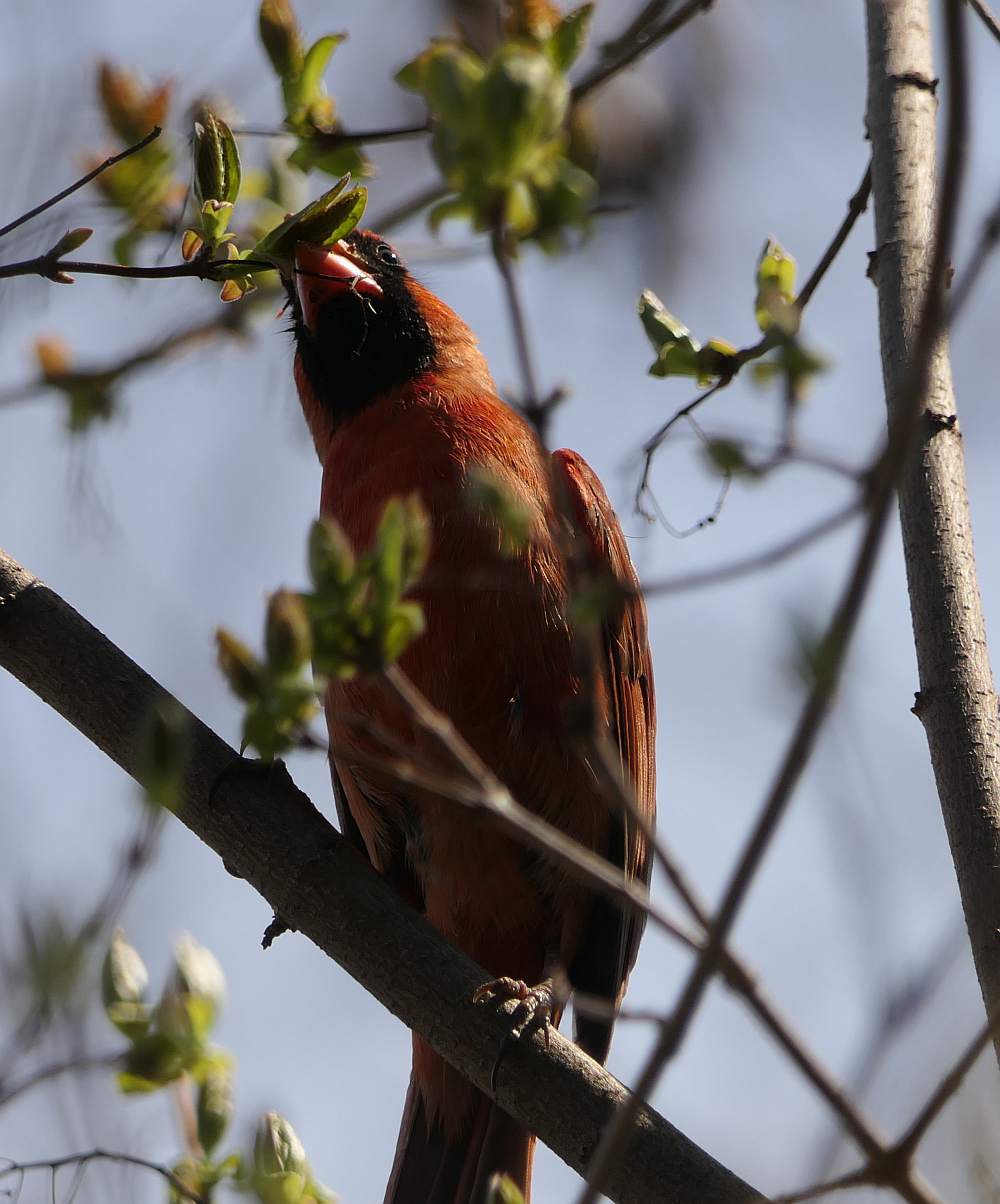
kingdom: Animalia
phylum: Chordata
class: Aves
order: Passeriformes
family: Cardinalidae
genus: Cardinalis
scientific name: Cardinalis cardinalis
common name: Northern cardinal
